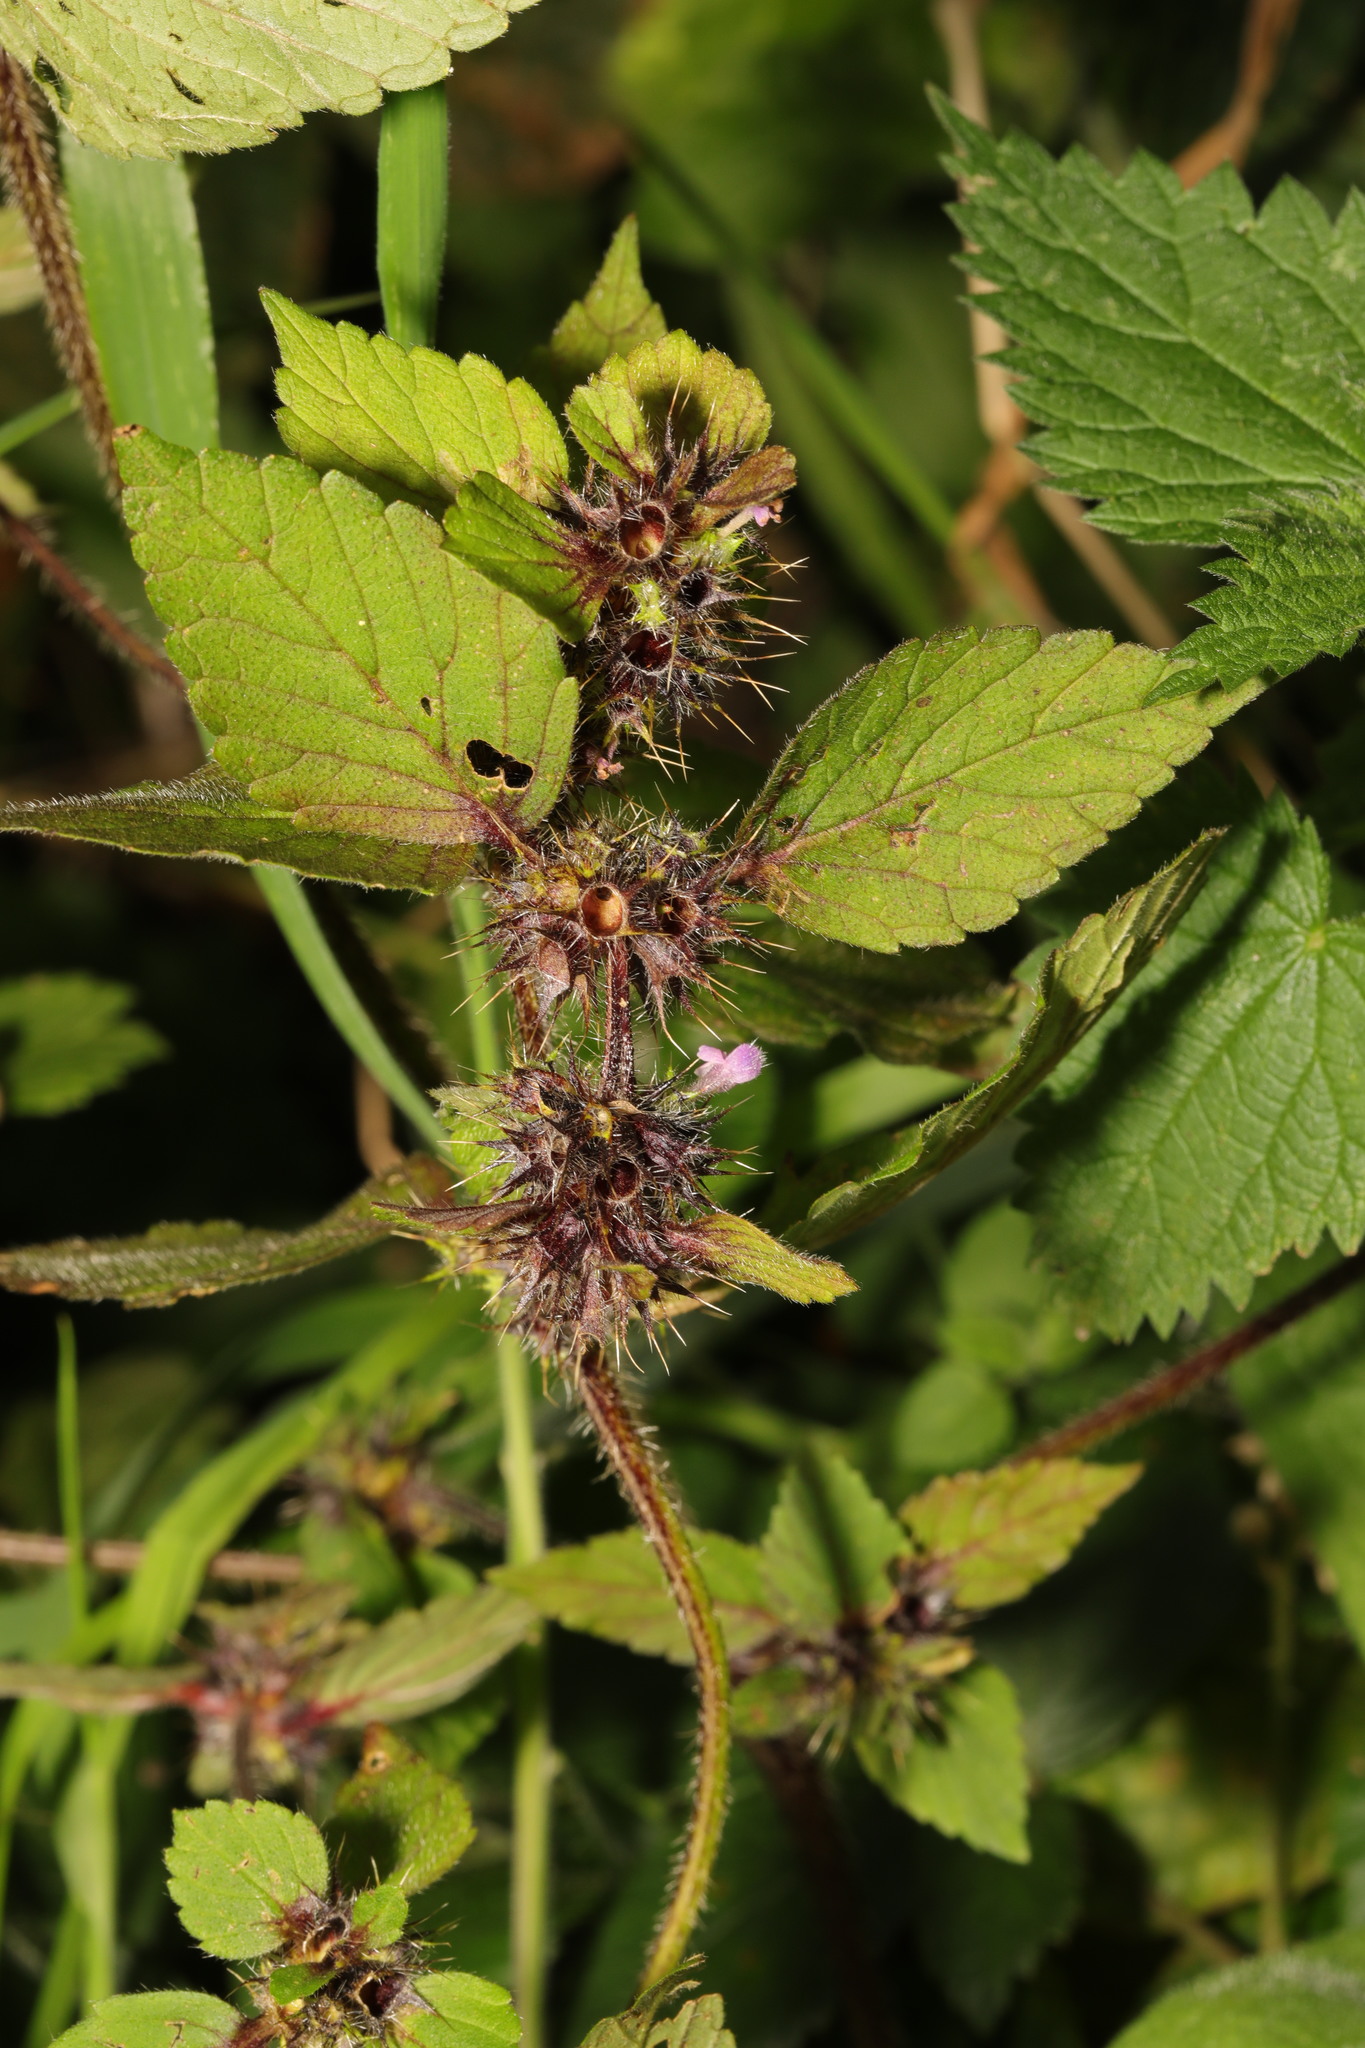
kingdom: Plantae
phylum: Tracheophyta
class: Magnoliopsida
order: Lamiales
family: Lamiaceae
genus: Galeopsis
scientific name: Galeopsis tetrahit
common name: Common hemp-nettle
